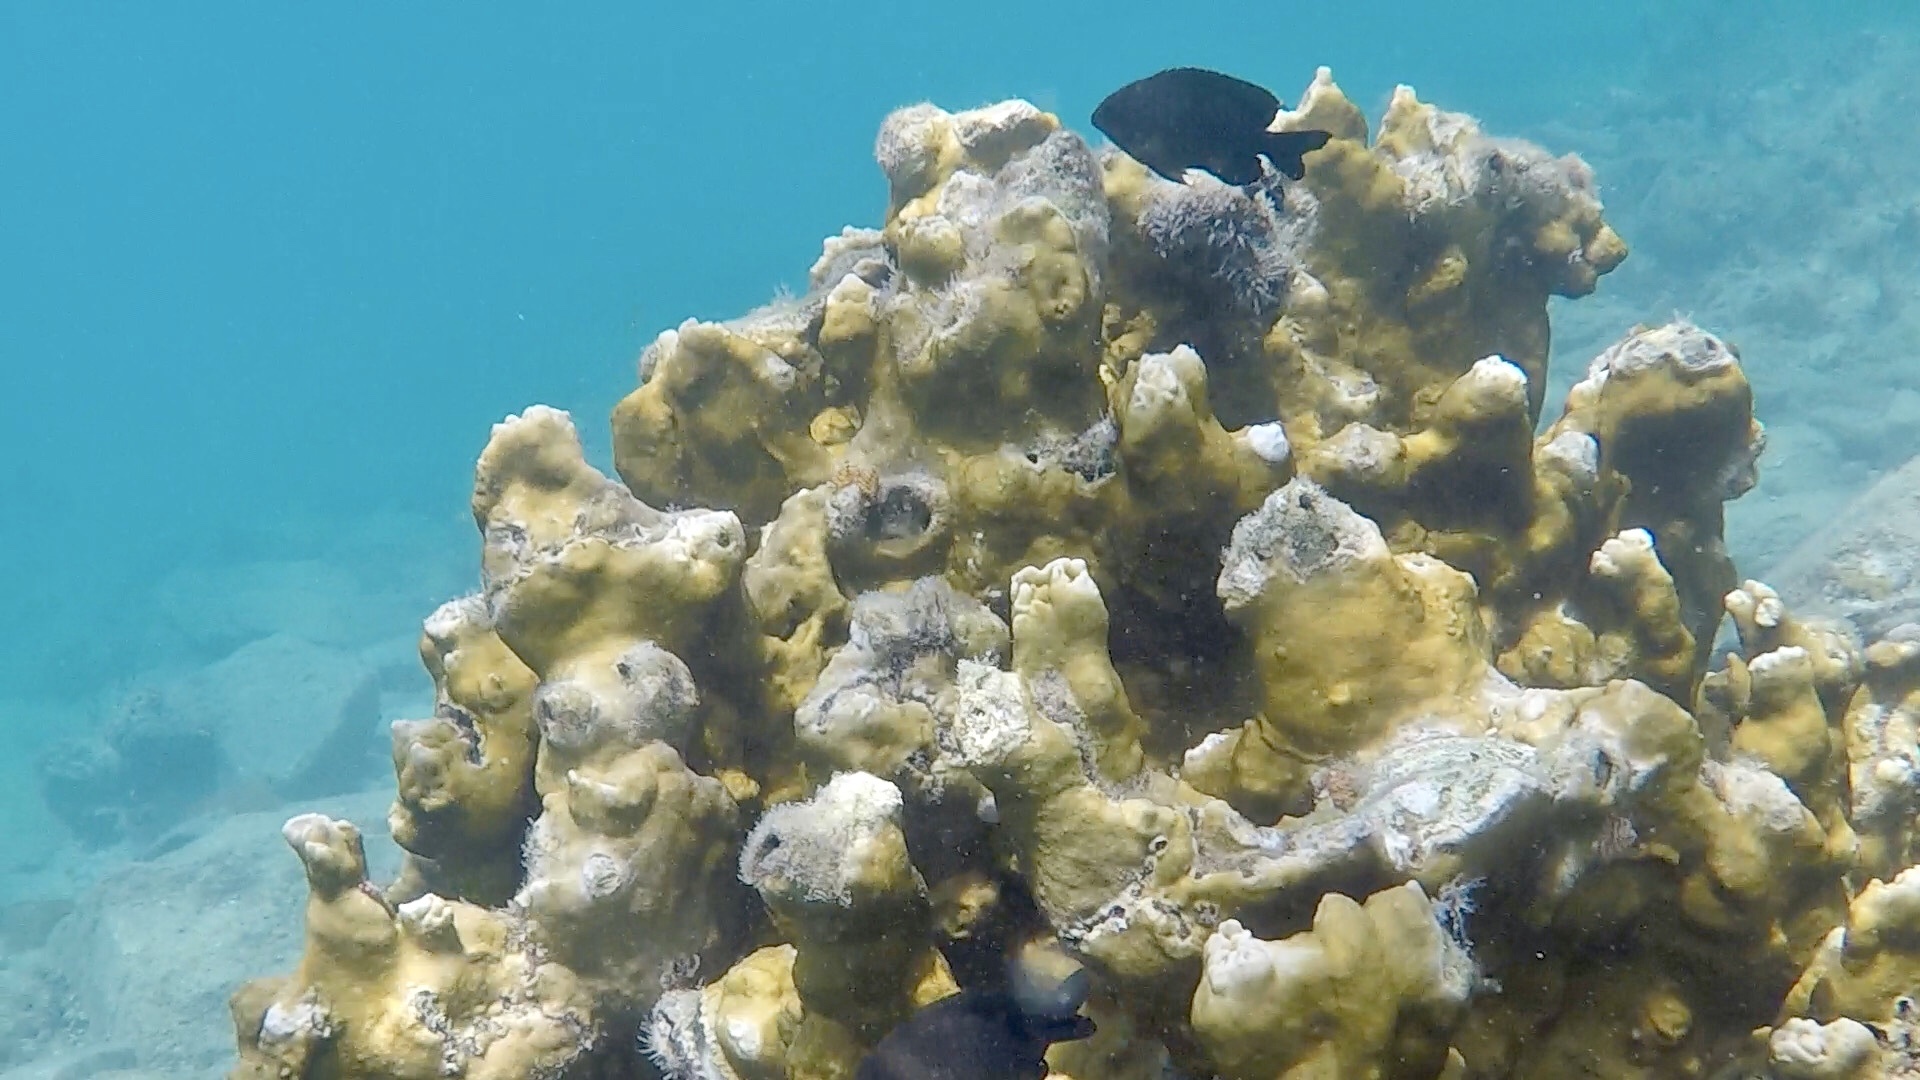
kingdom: Animalia
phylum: Chordata
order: Perciformes
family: Pomacentridae
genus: Stegastes
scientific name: Stegastes adustus
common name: Dusky damselfish
